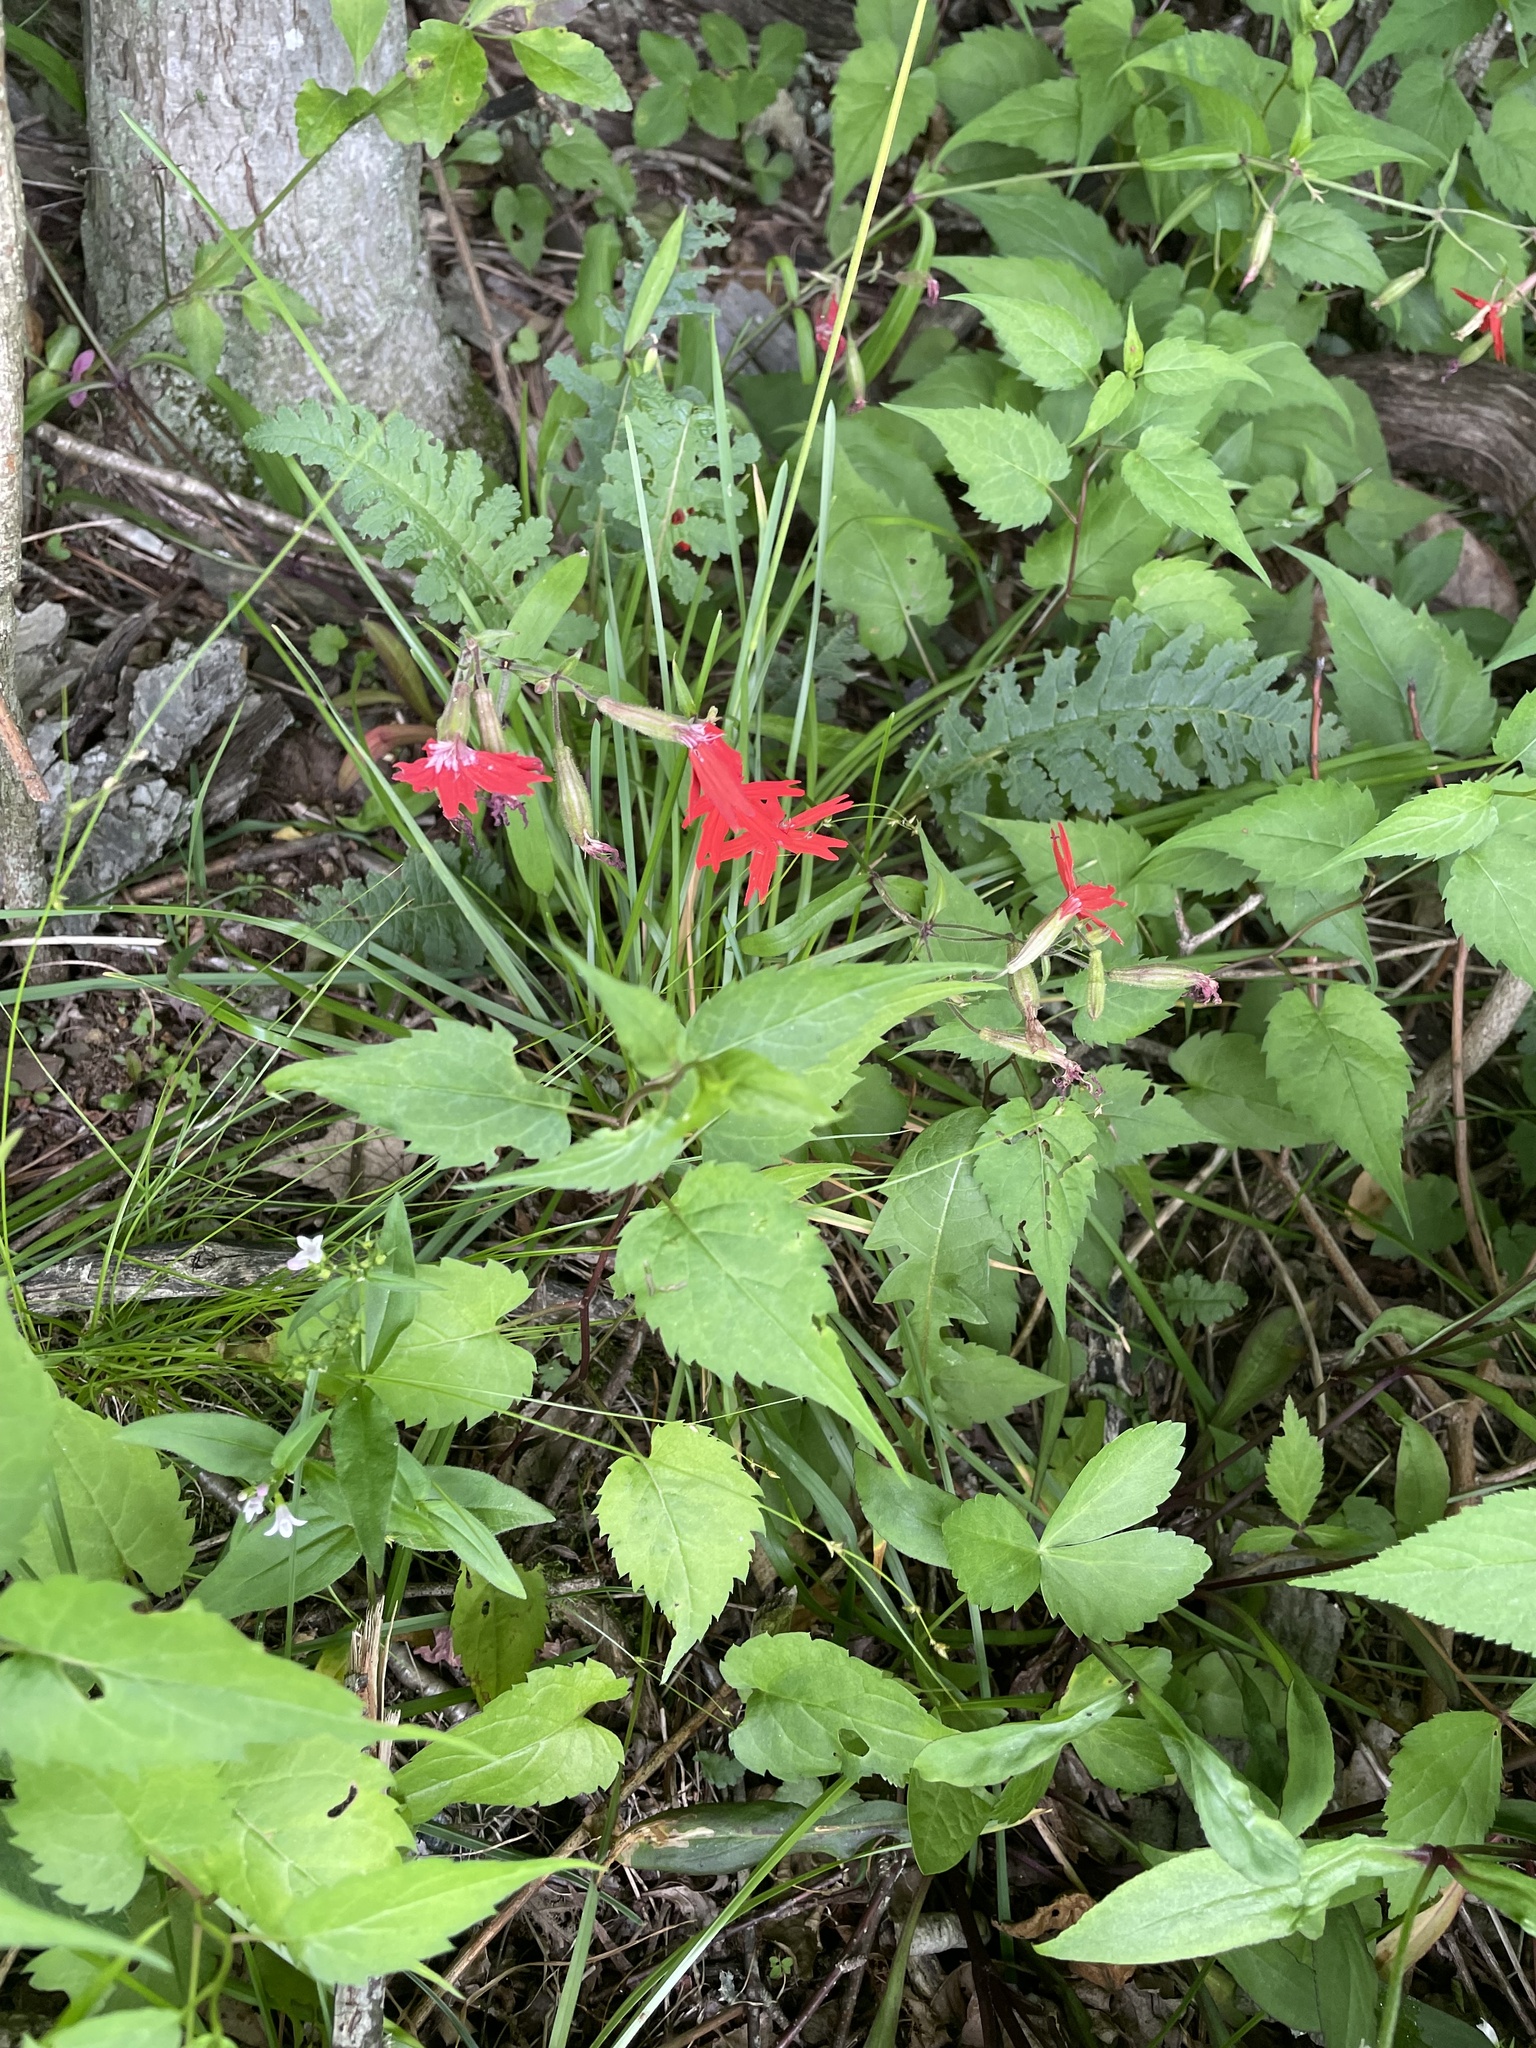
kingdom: Plantae
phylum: Tracheophyta
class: Magnoliopsida
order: Caryophyllales
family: Caryophyllaceae
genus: Silene
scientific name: Silene virginica
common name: Fire-pink
